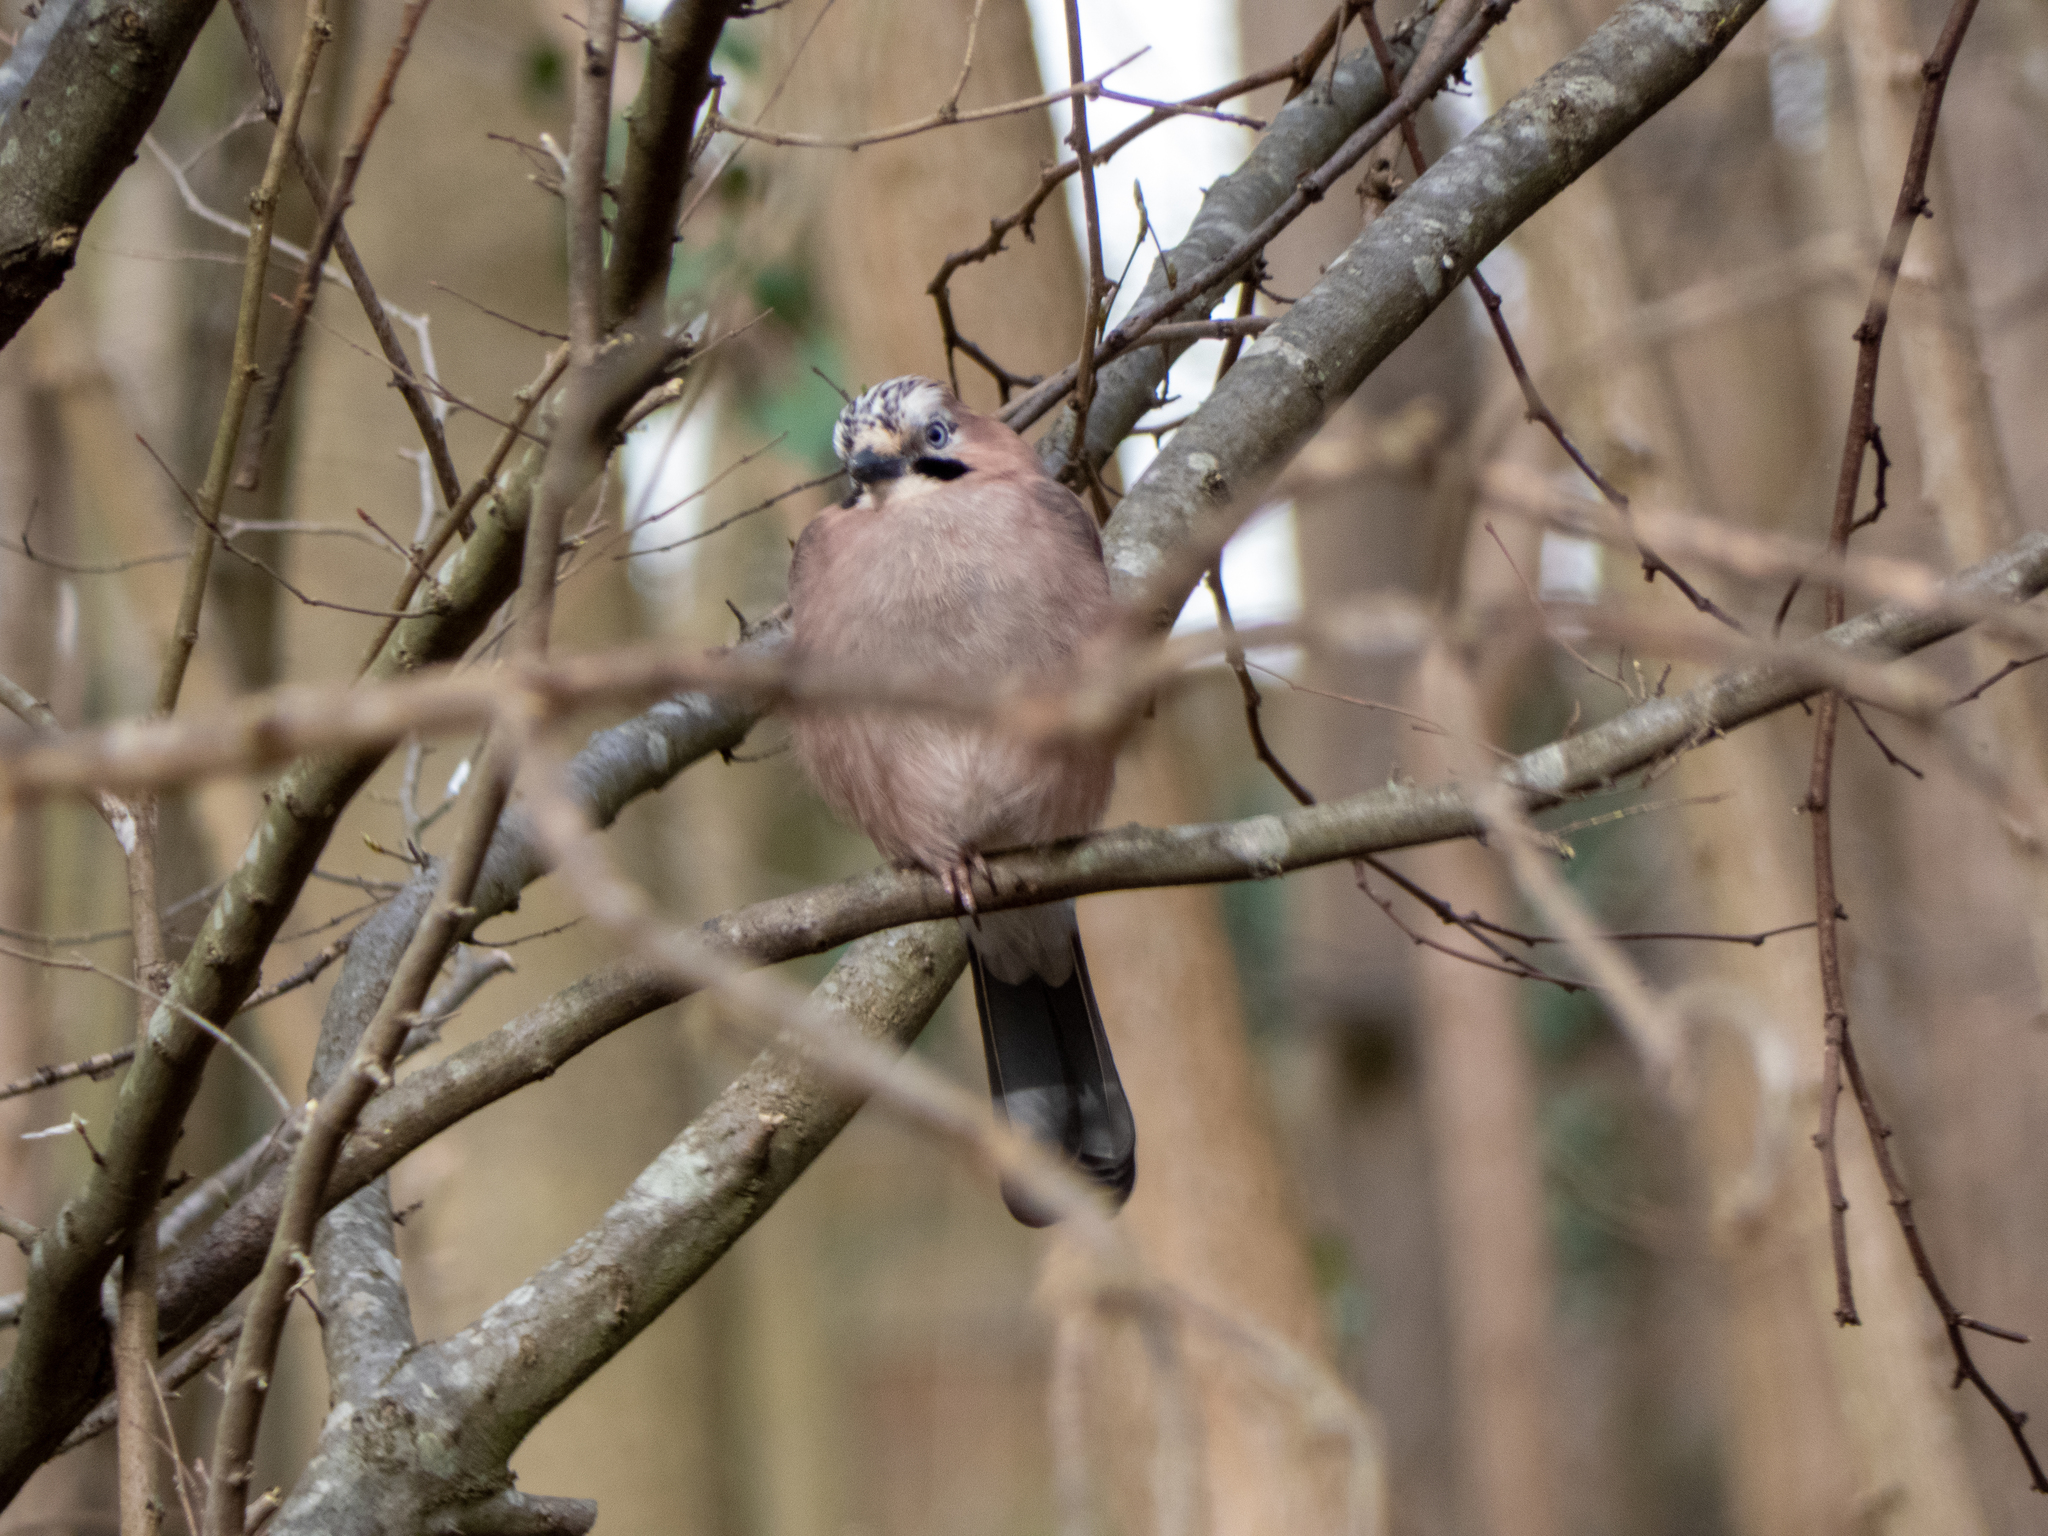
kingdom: Animalia
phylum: Chordata
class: Aves
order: Passeriformes
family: Corvidae
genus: Garrulus
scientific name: Garrulus glandarius
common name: Eurasian jay
